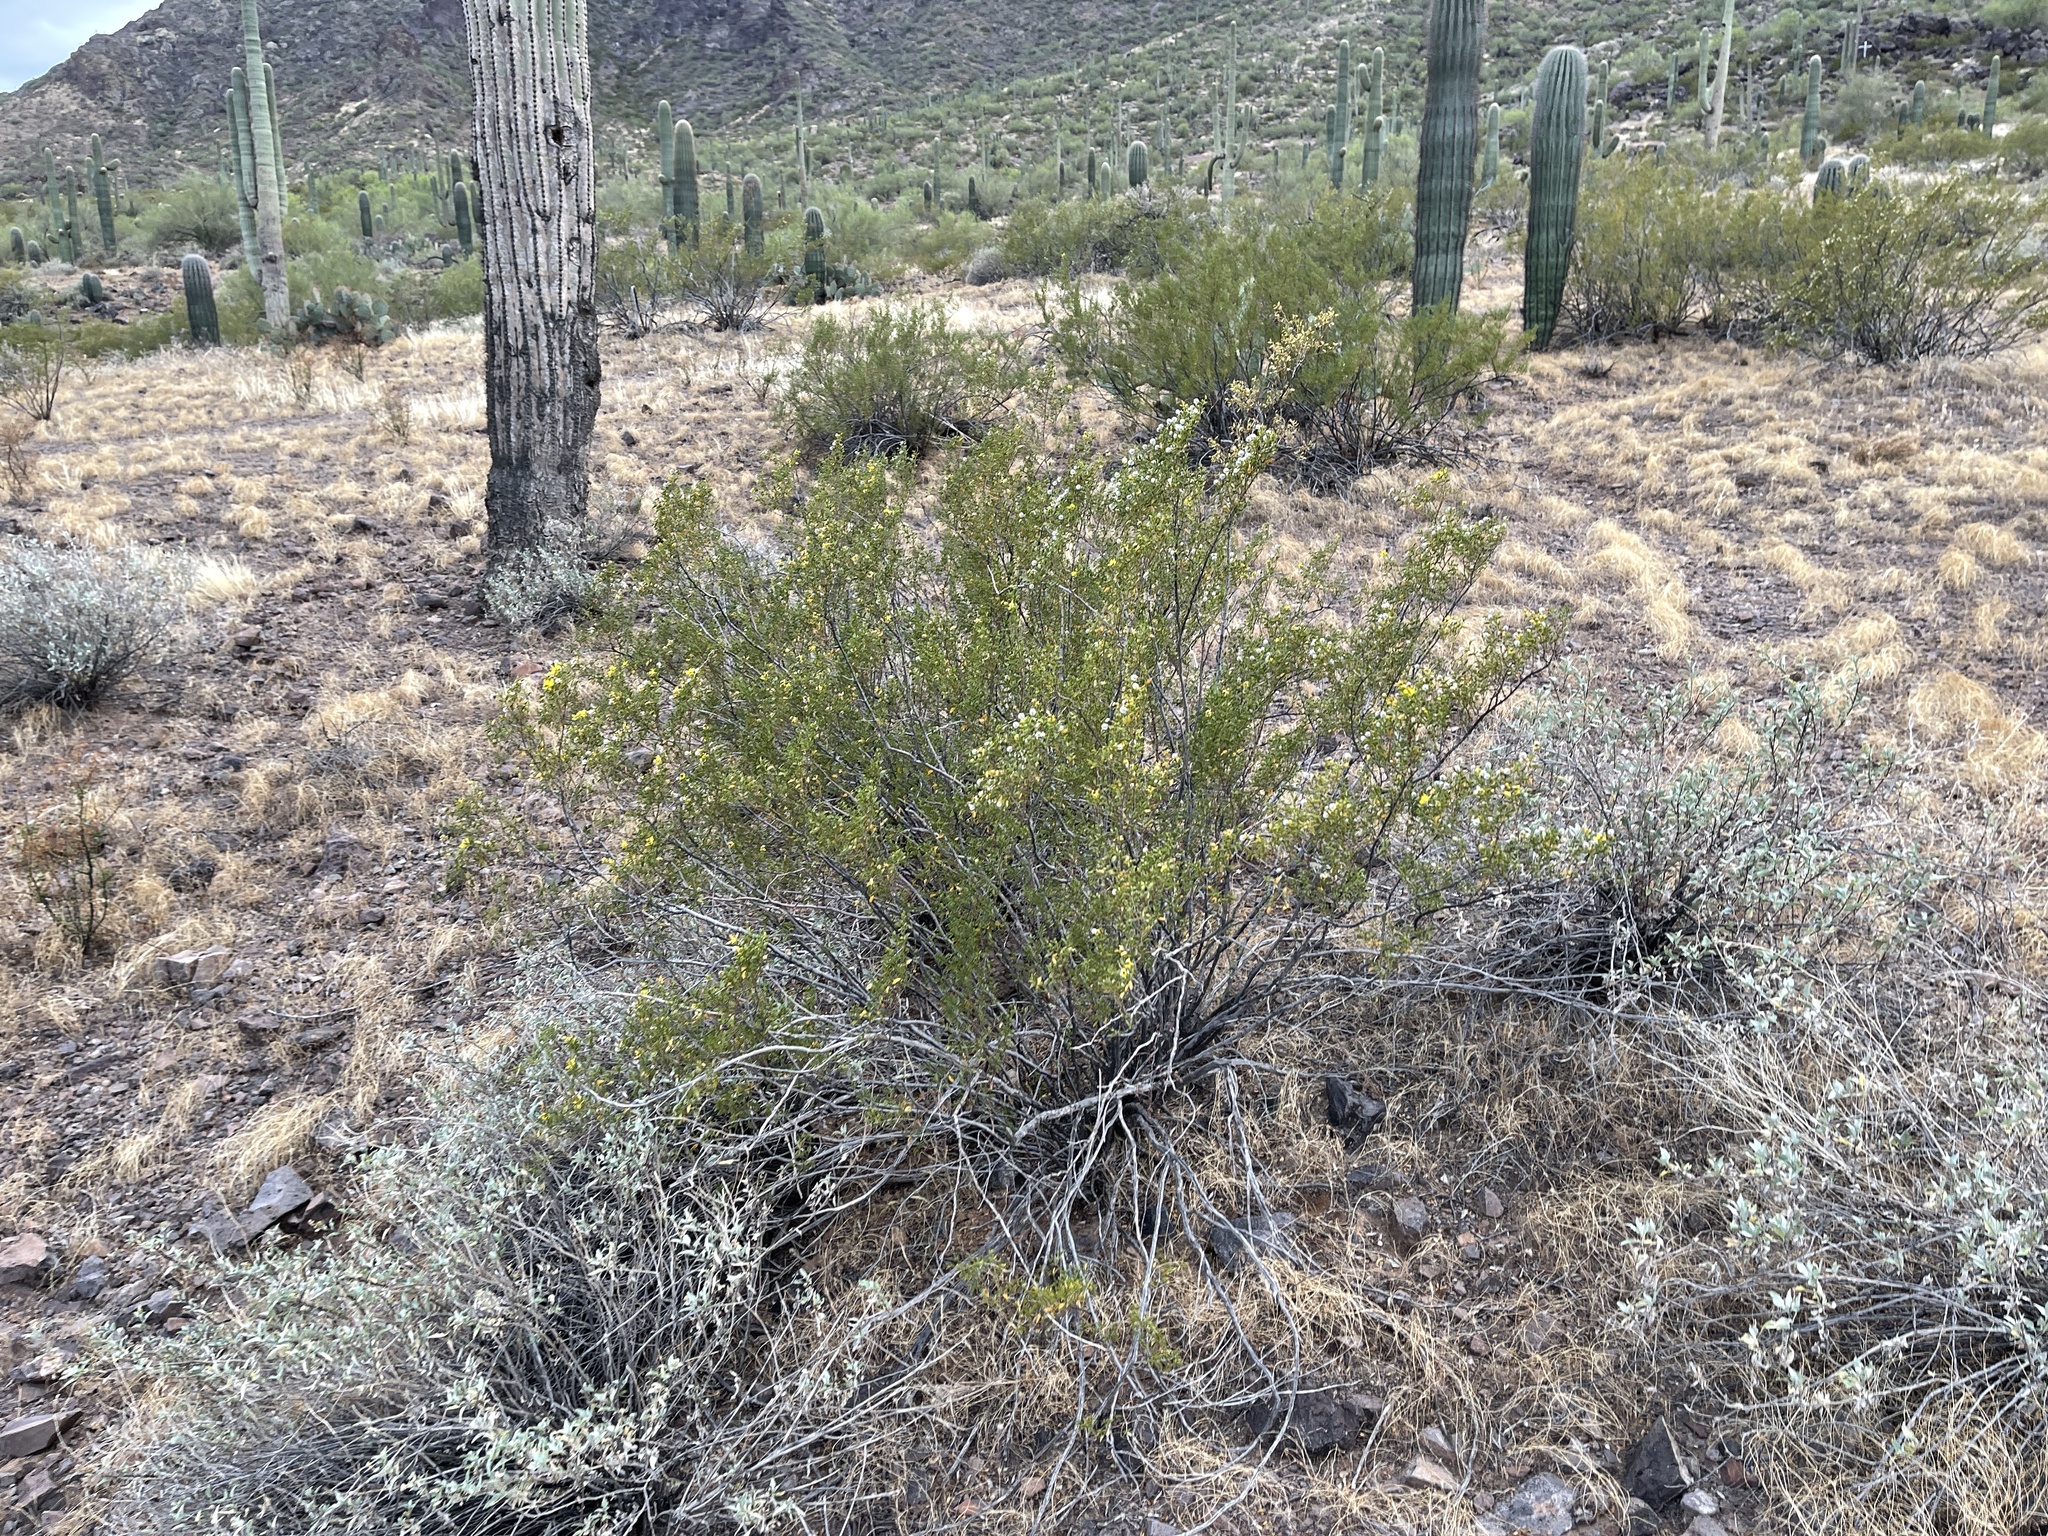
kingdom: Plantae
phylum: Tracheophyta
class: Magnoliopsida
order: Zygophyllales
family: Zygophyllaceae
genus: Larrea
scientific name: Larrea tridentata
